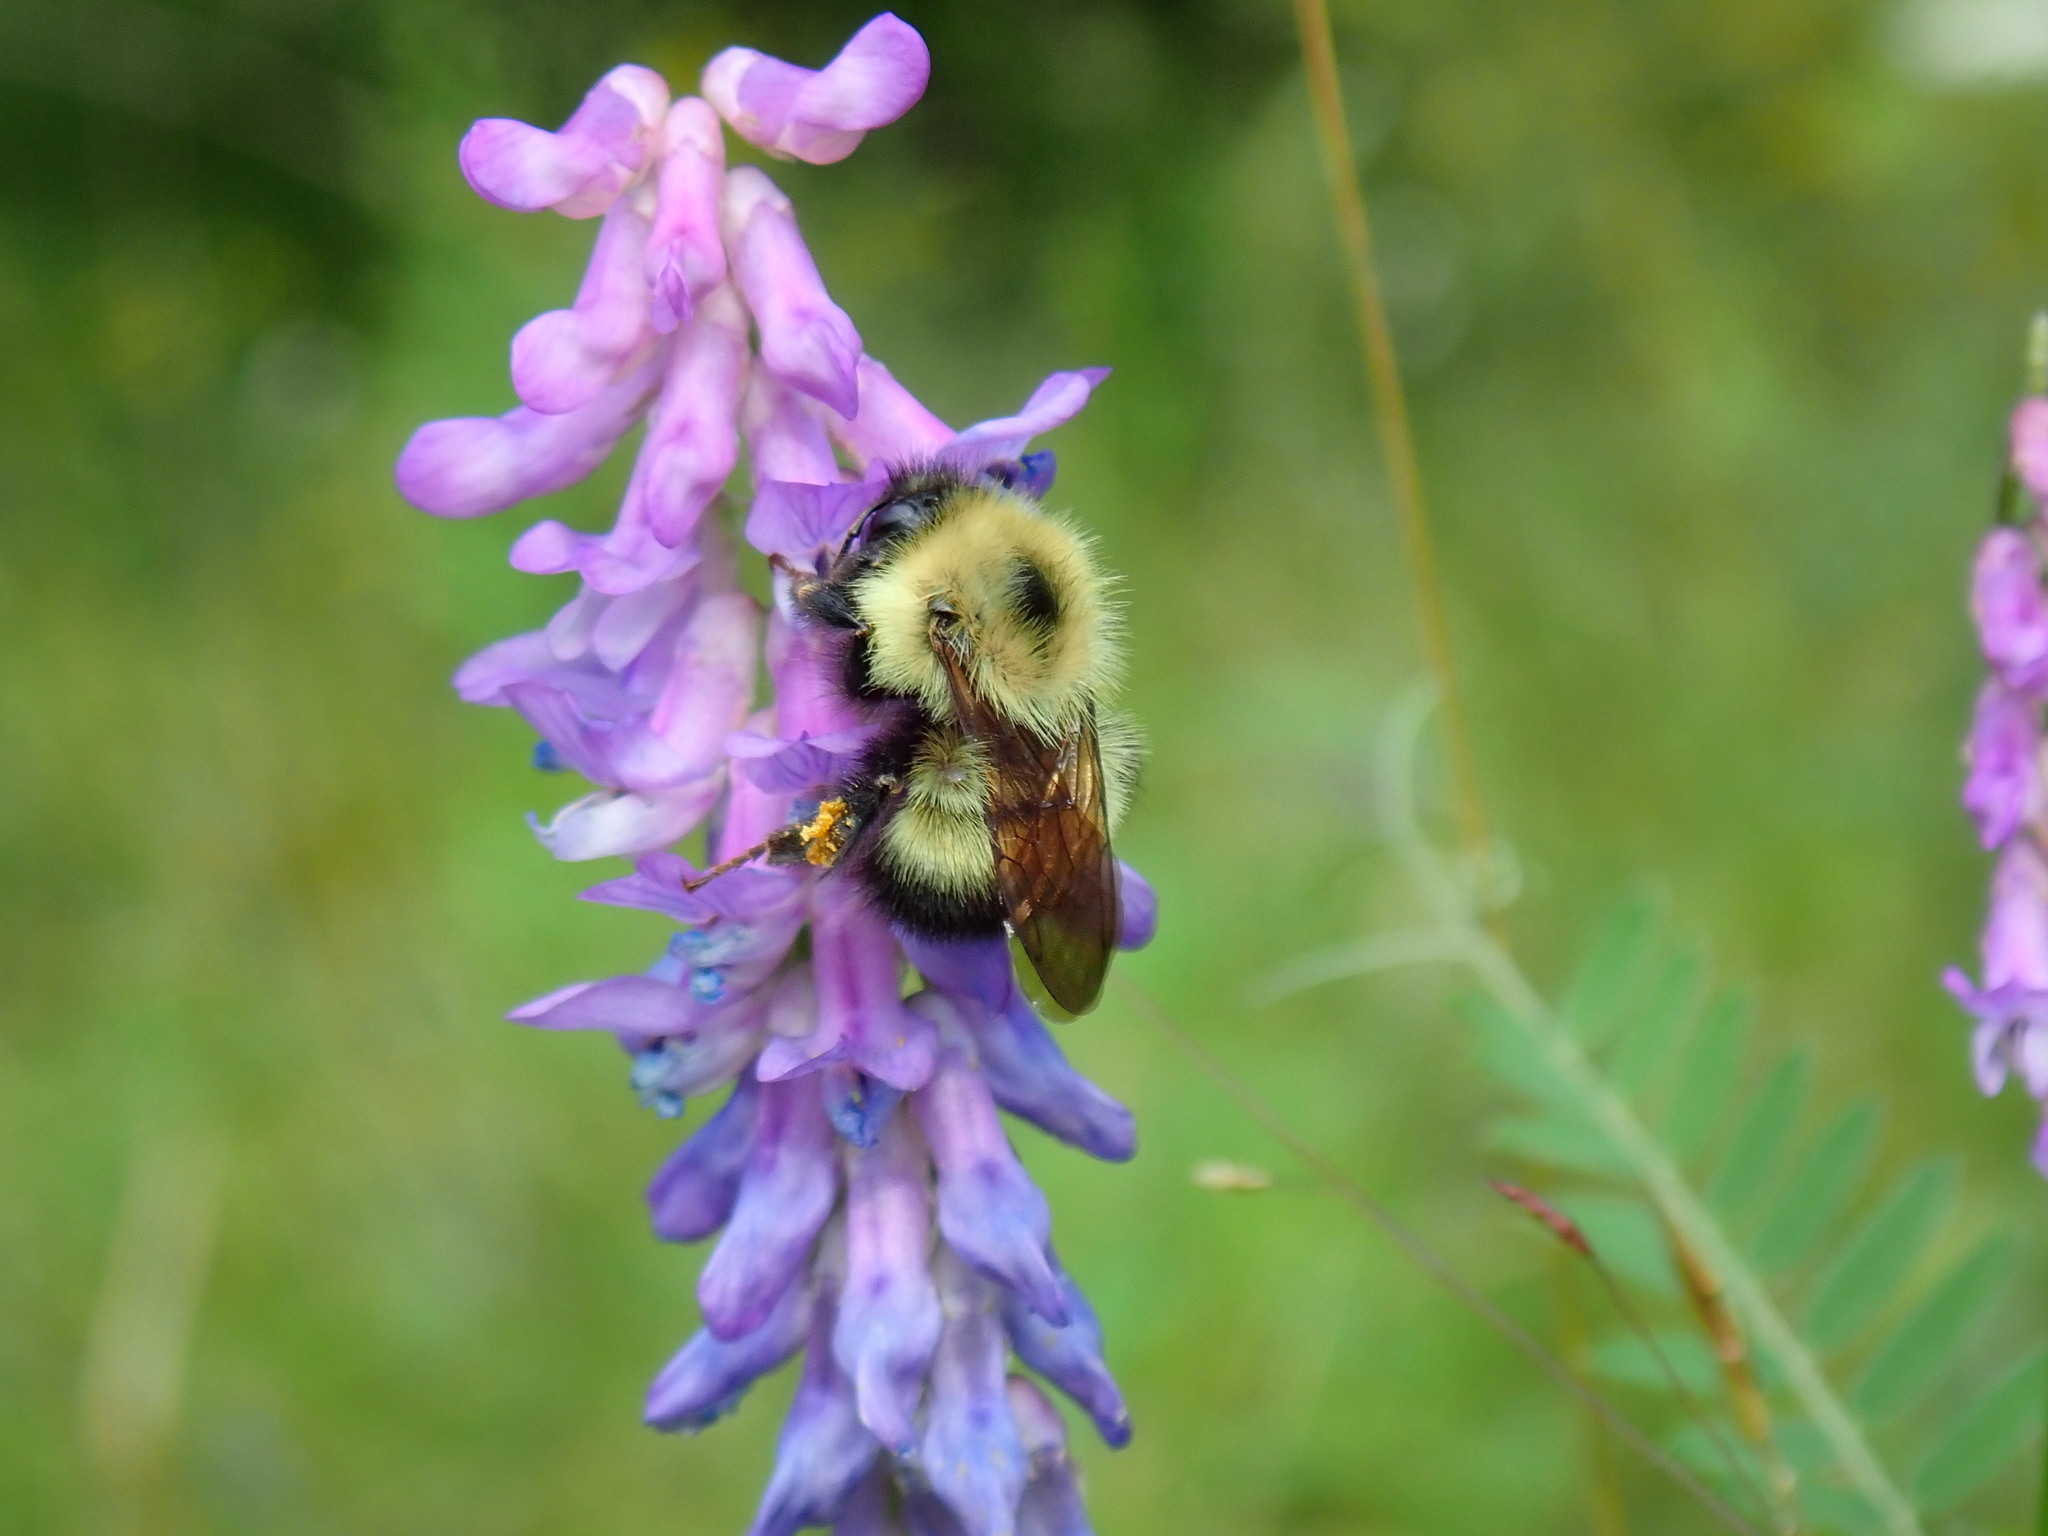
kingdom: Animalia
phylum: Arthropoda
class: Insecta
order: Hymenoptera
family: Apidae
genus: Pyrobombus
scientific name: Pyrobombus
